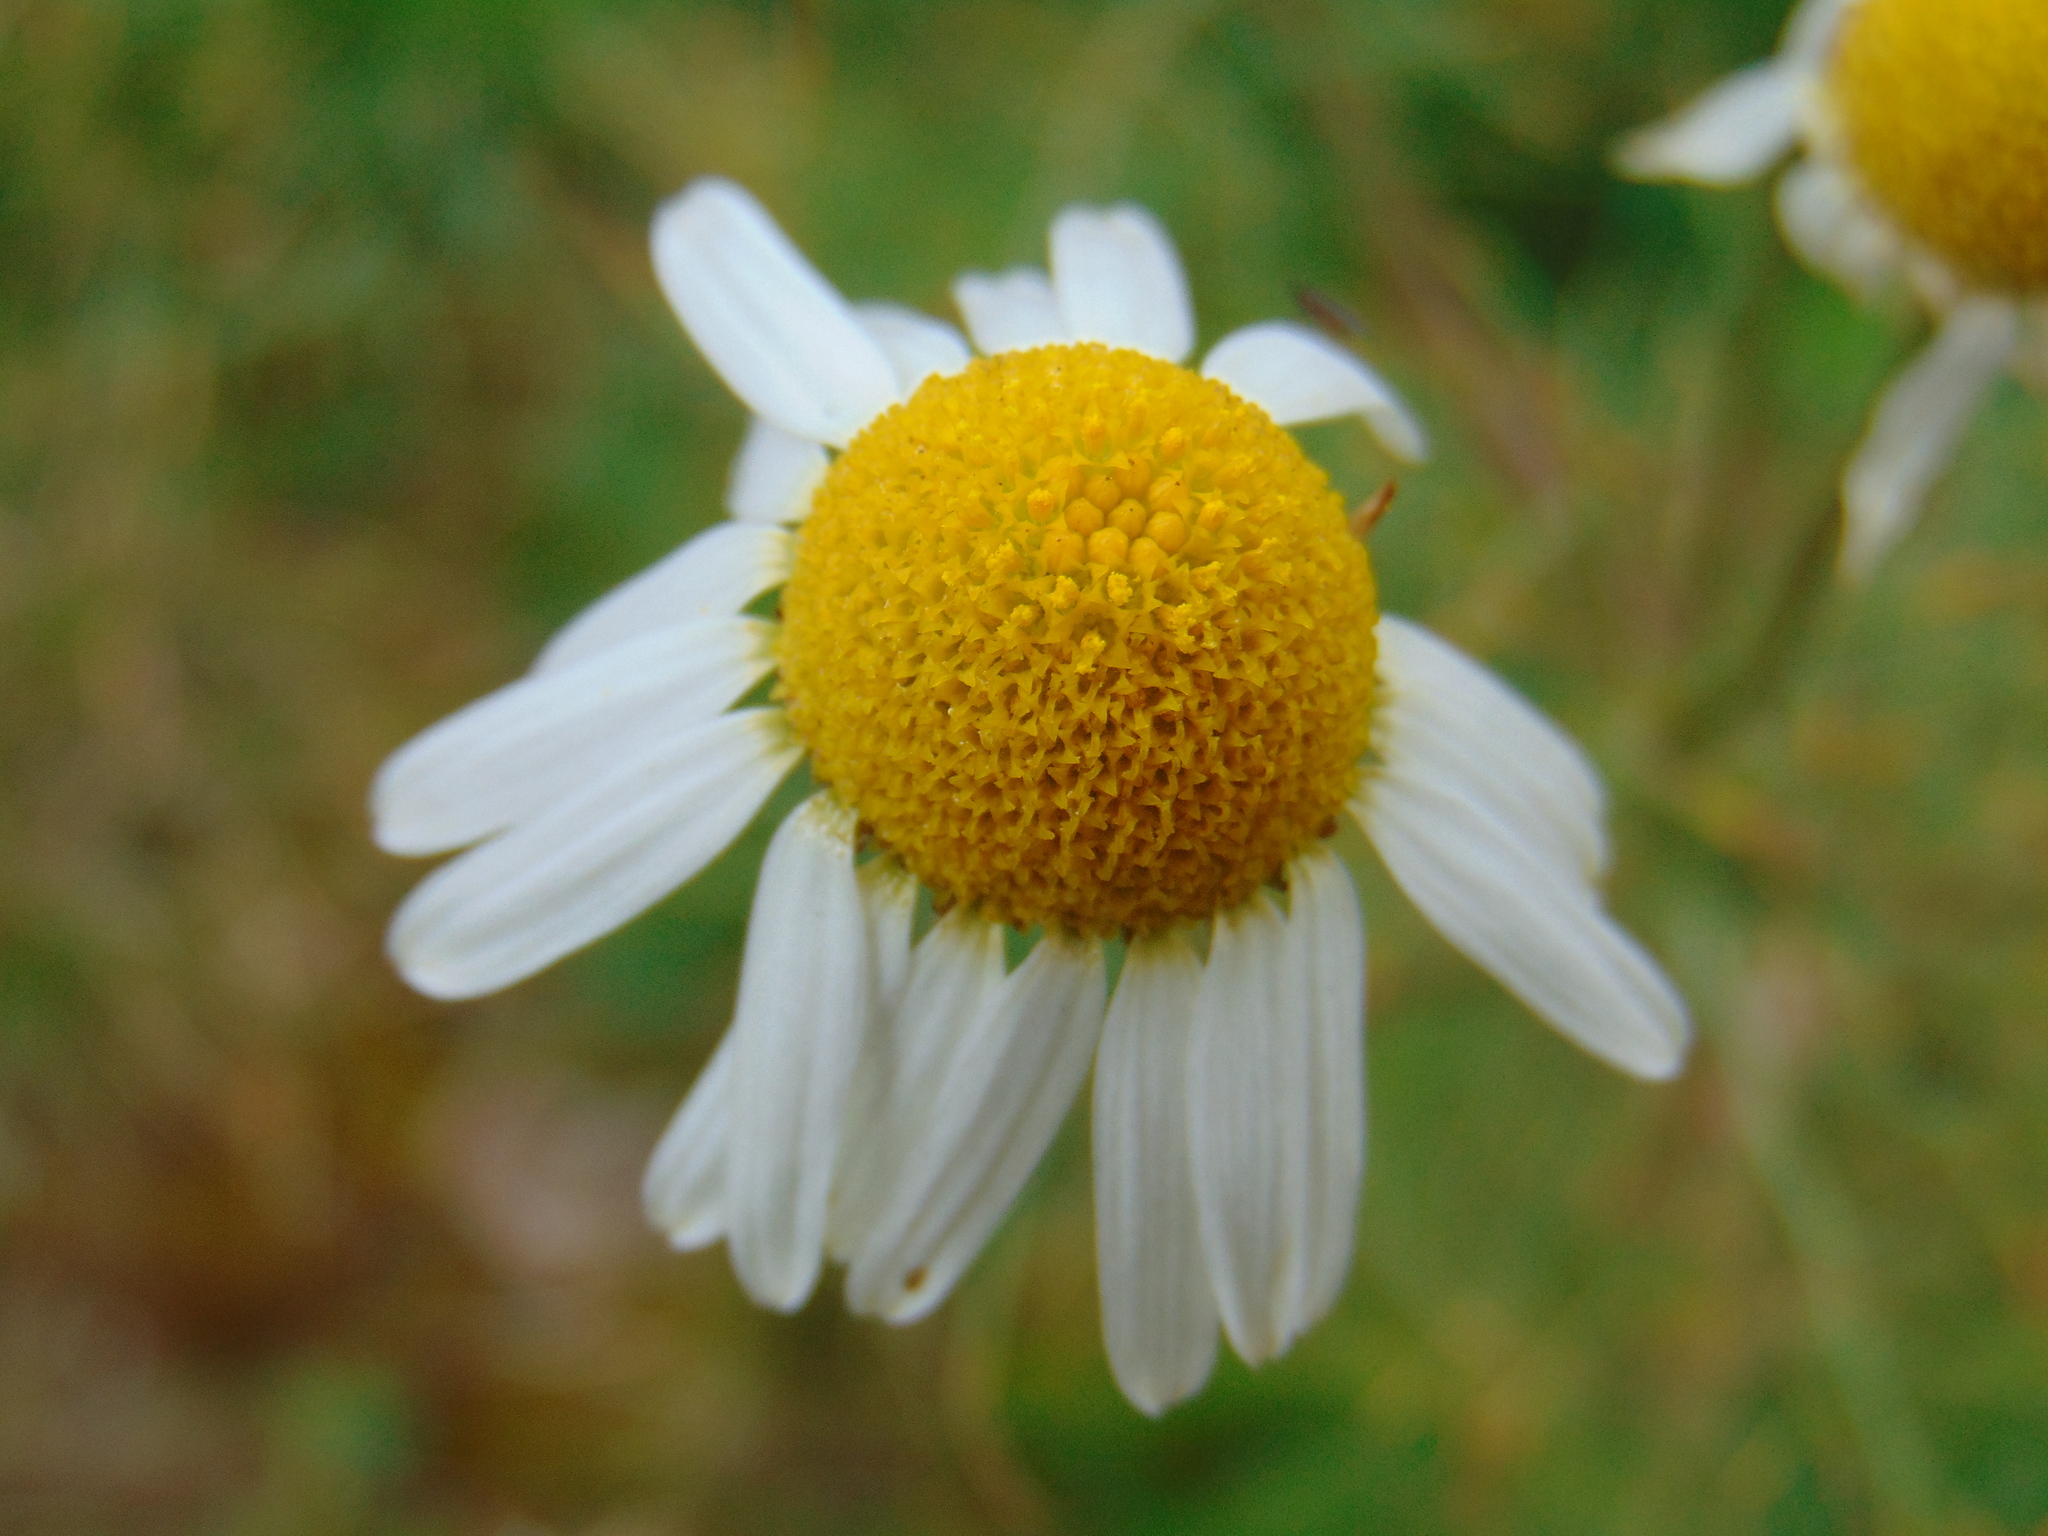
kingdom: Plantae
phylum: Tracheophyta
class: Magnoliopsida
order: Asterales
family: Asteraceae
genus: Tripleurospermum
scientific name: Tripleurospermum inodorum
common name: Scentless mayweed
